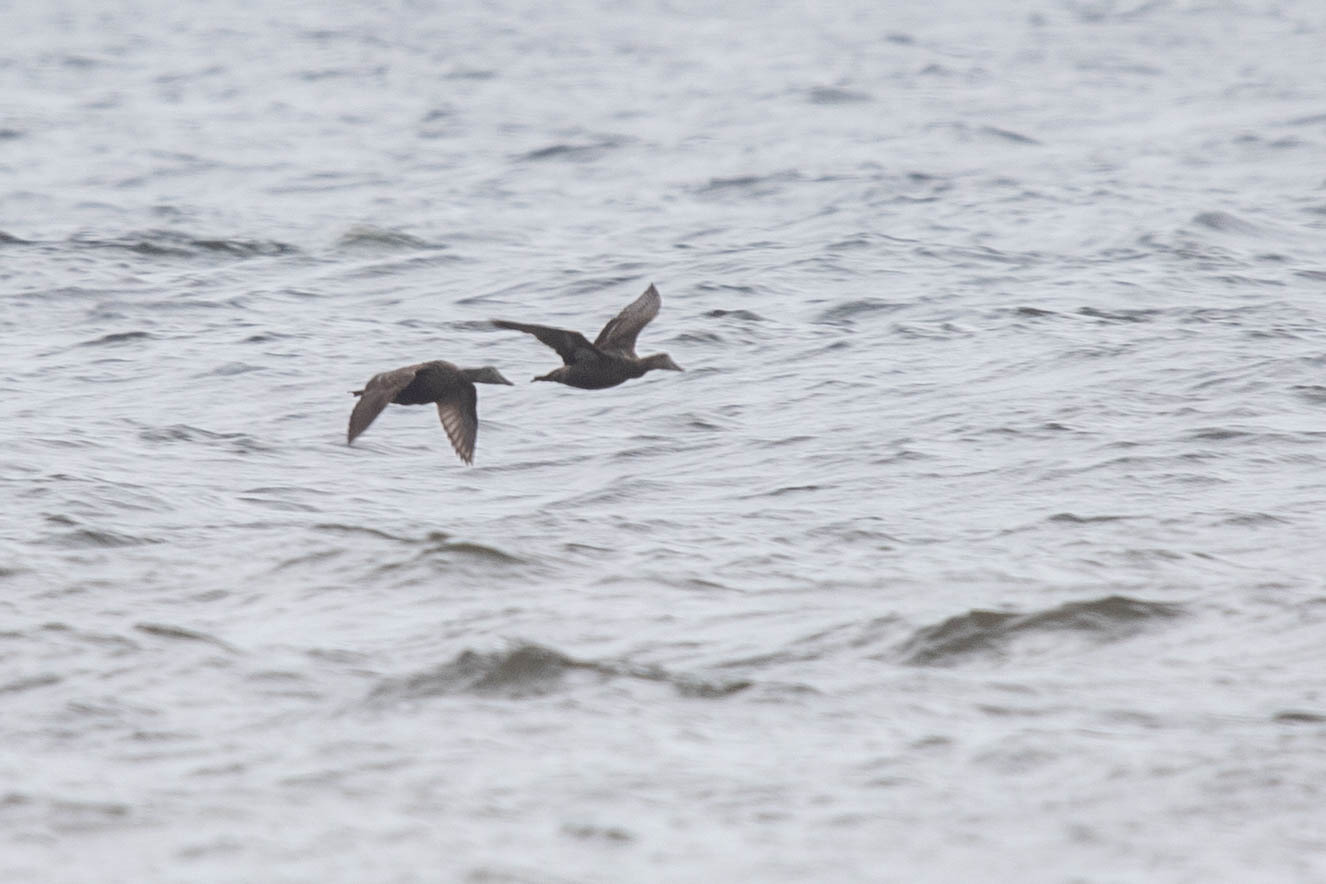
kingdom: Animalia
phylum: Chordata
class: Aves
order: Anseriformes
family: Anatidae
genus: Somateria
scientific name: Somateria mollissima
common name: Common eider
